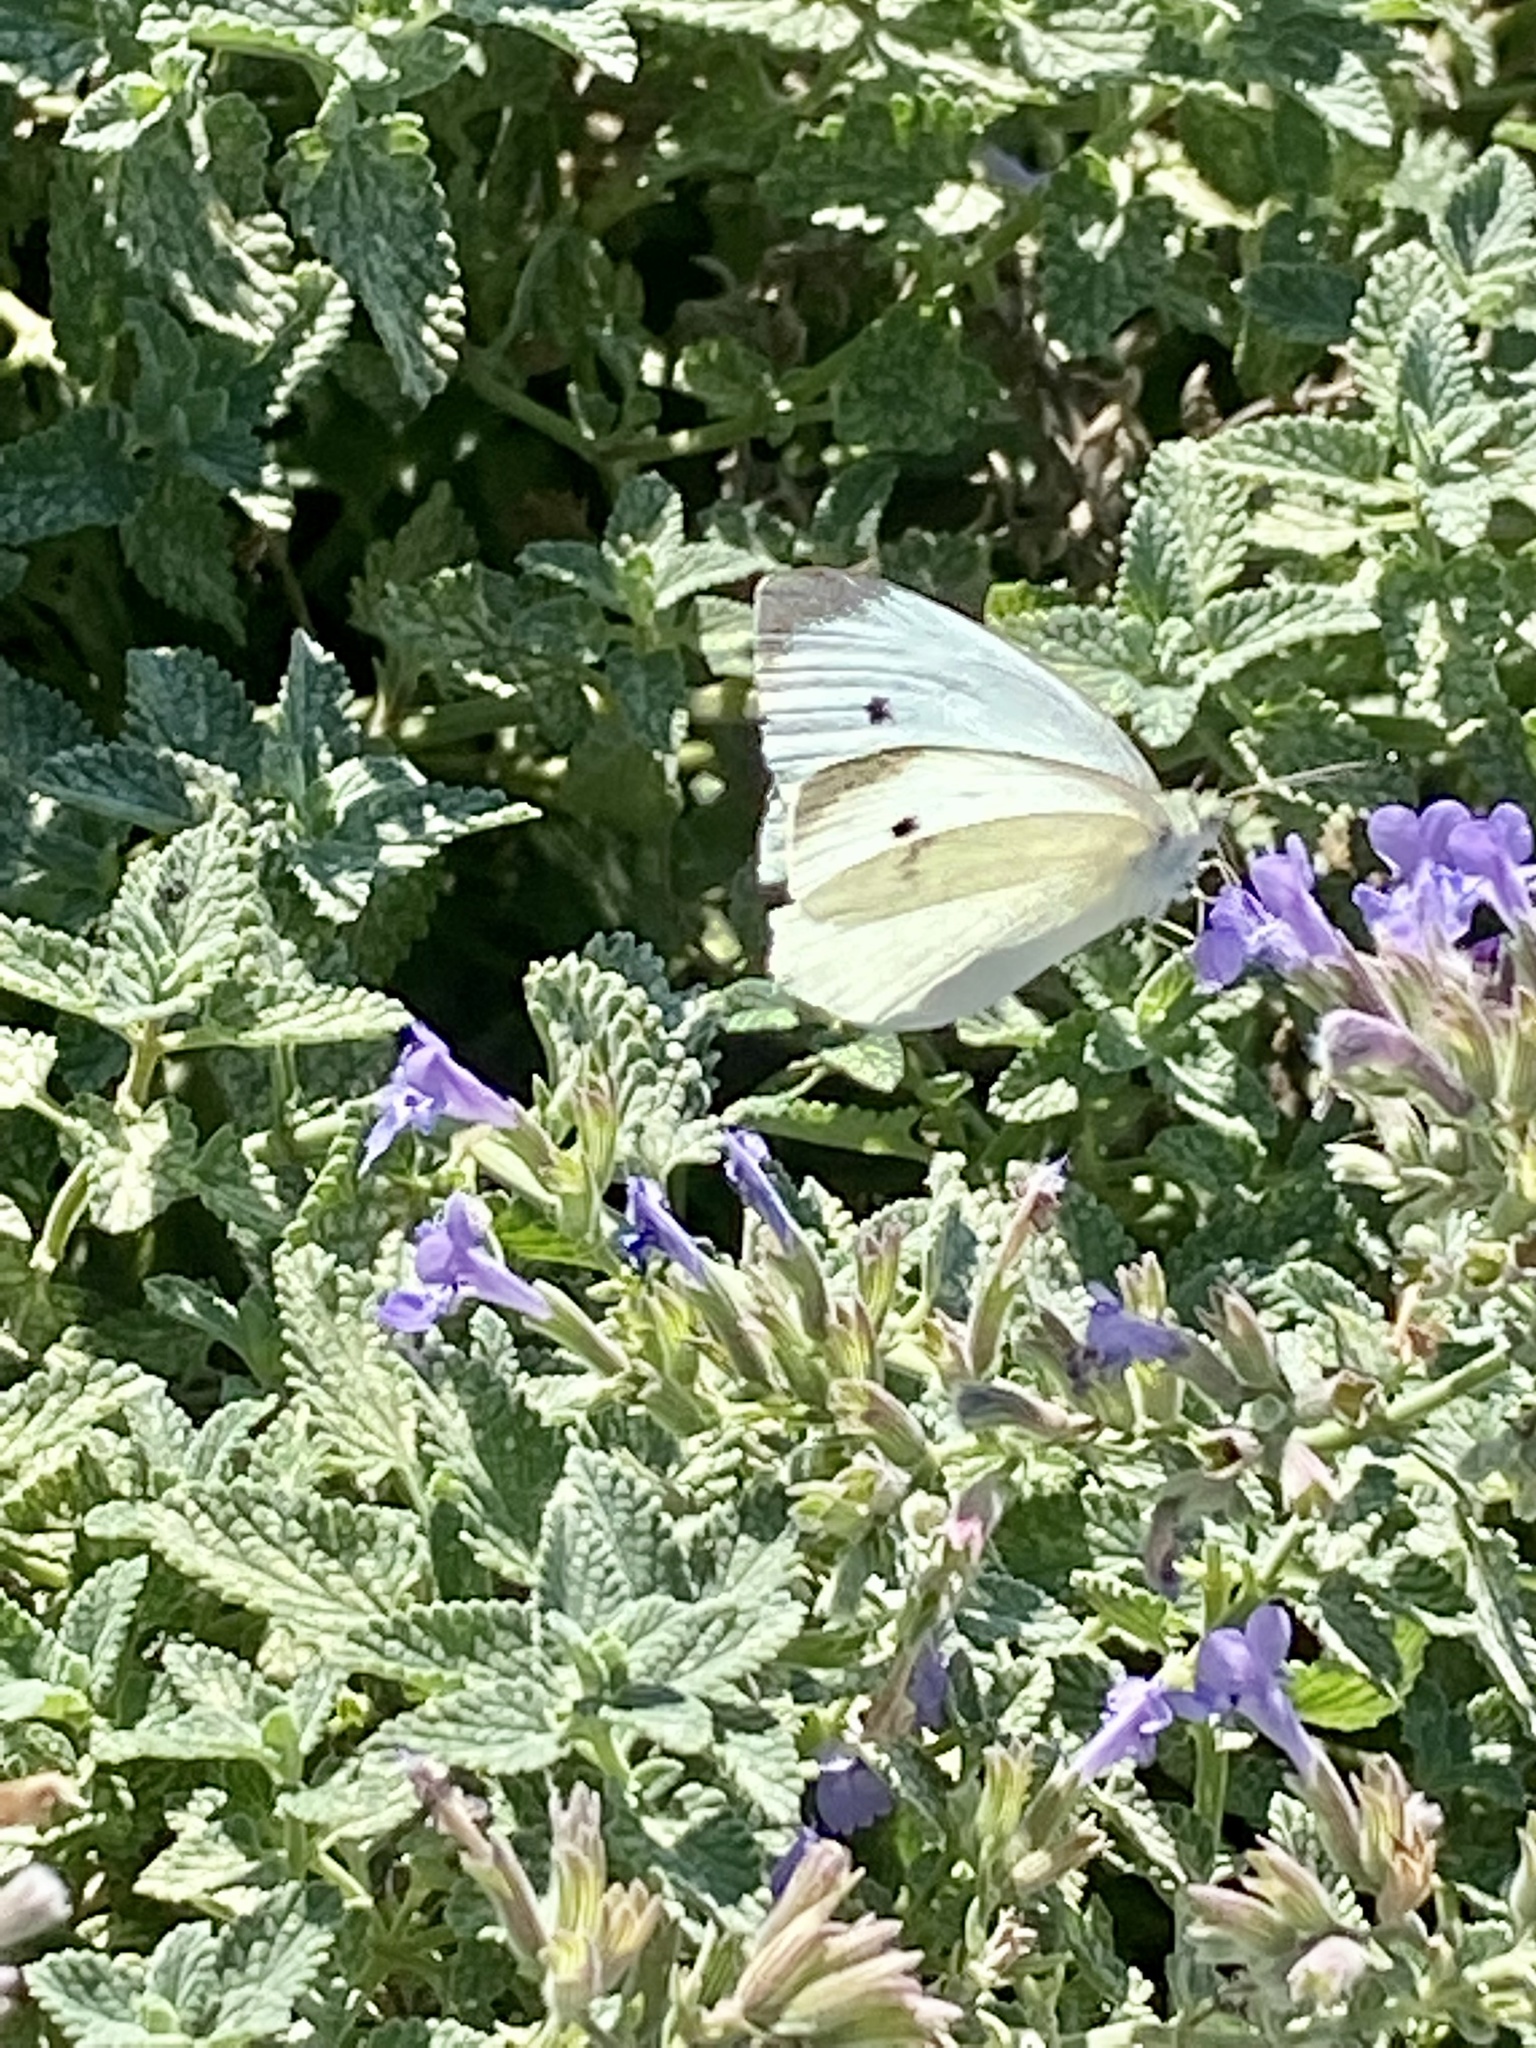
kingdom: Animalia
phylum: Arthropoda
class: Insecta
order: Lepidoptera
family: Pieridae
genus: Pieris
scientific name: Pieris rapae
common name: Small white
